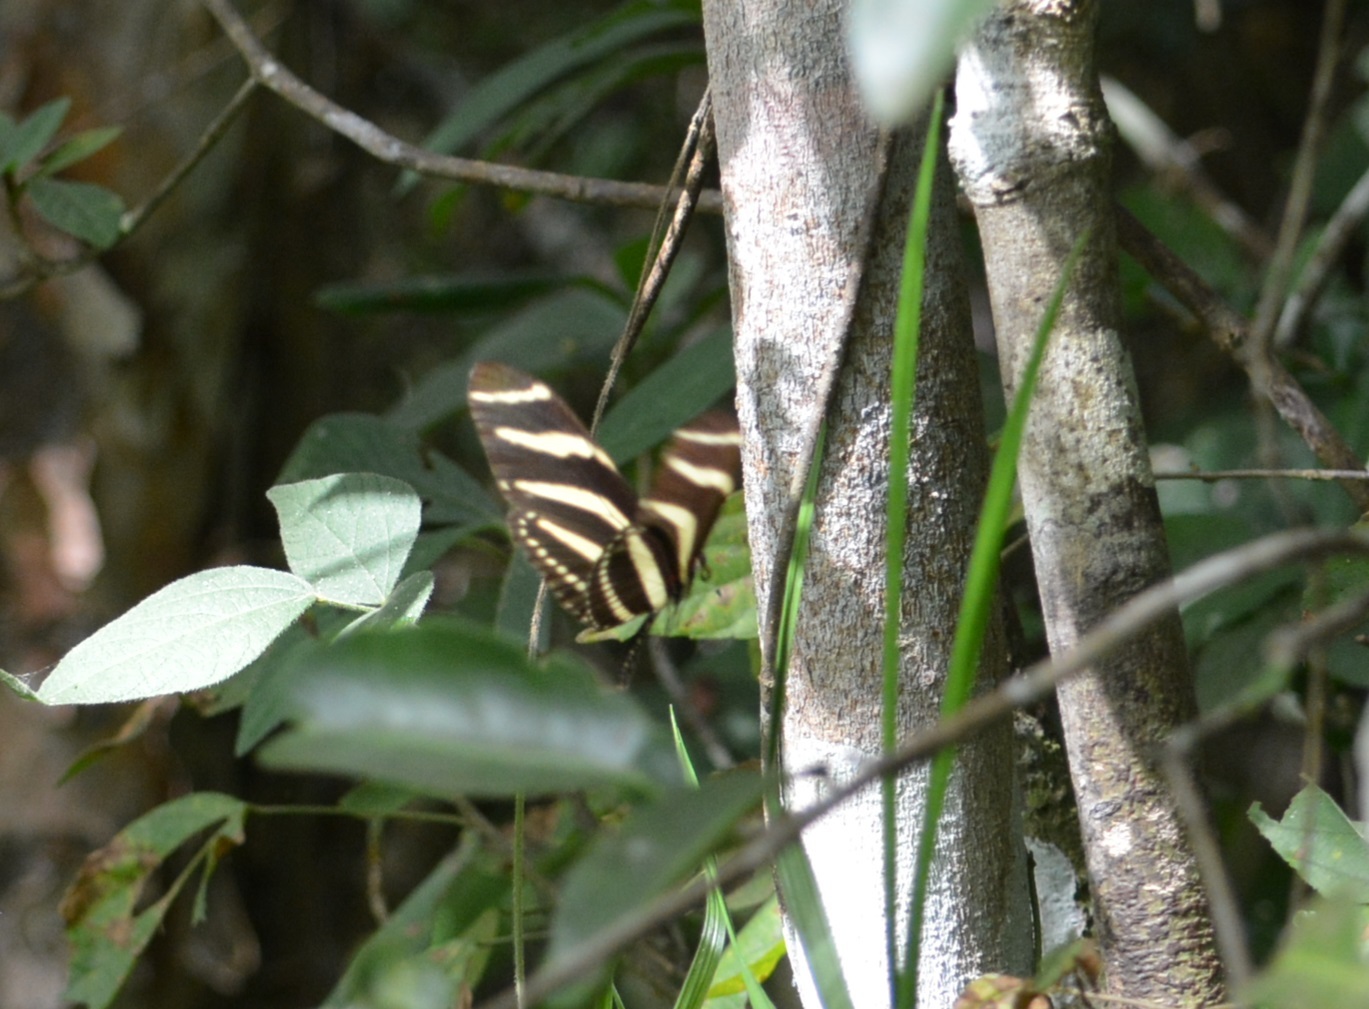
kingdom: Animalia
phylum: Arthropoda
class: Insecta
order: Lepidoptera
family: Nymphalidae
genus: Heliconius
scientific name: Heliconius charithonia
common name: Zebra long wing
